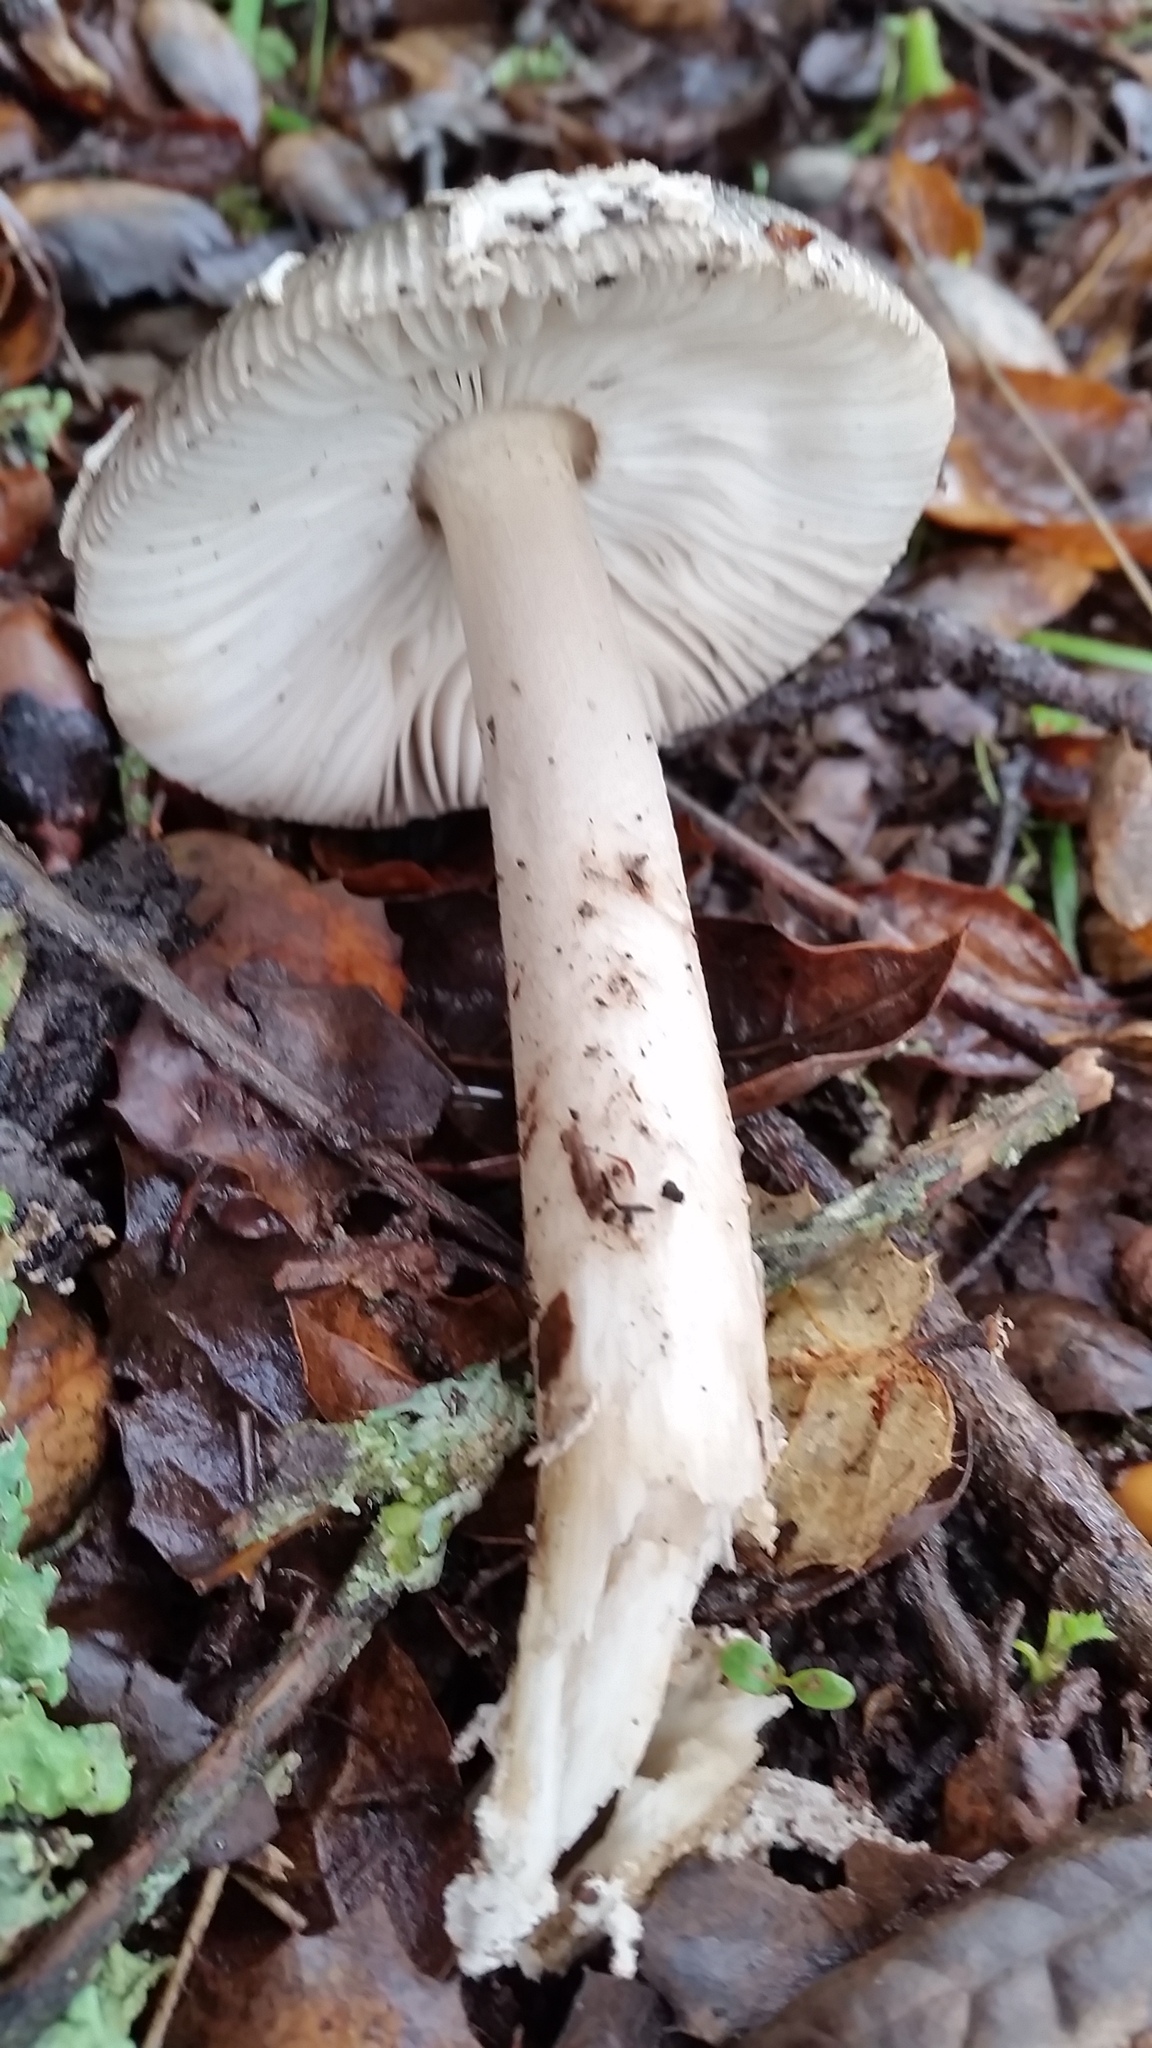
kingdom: Fungi
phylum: Basidiomycota
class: Agaricomycetes
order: Agaricales
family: Amanitaceae
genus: Amanita
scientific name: Amanita constricta
